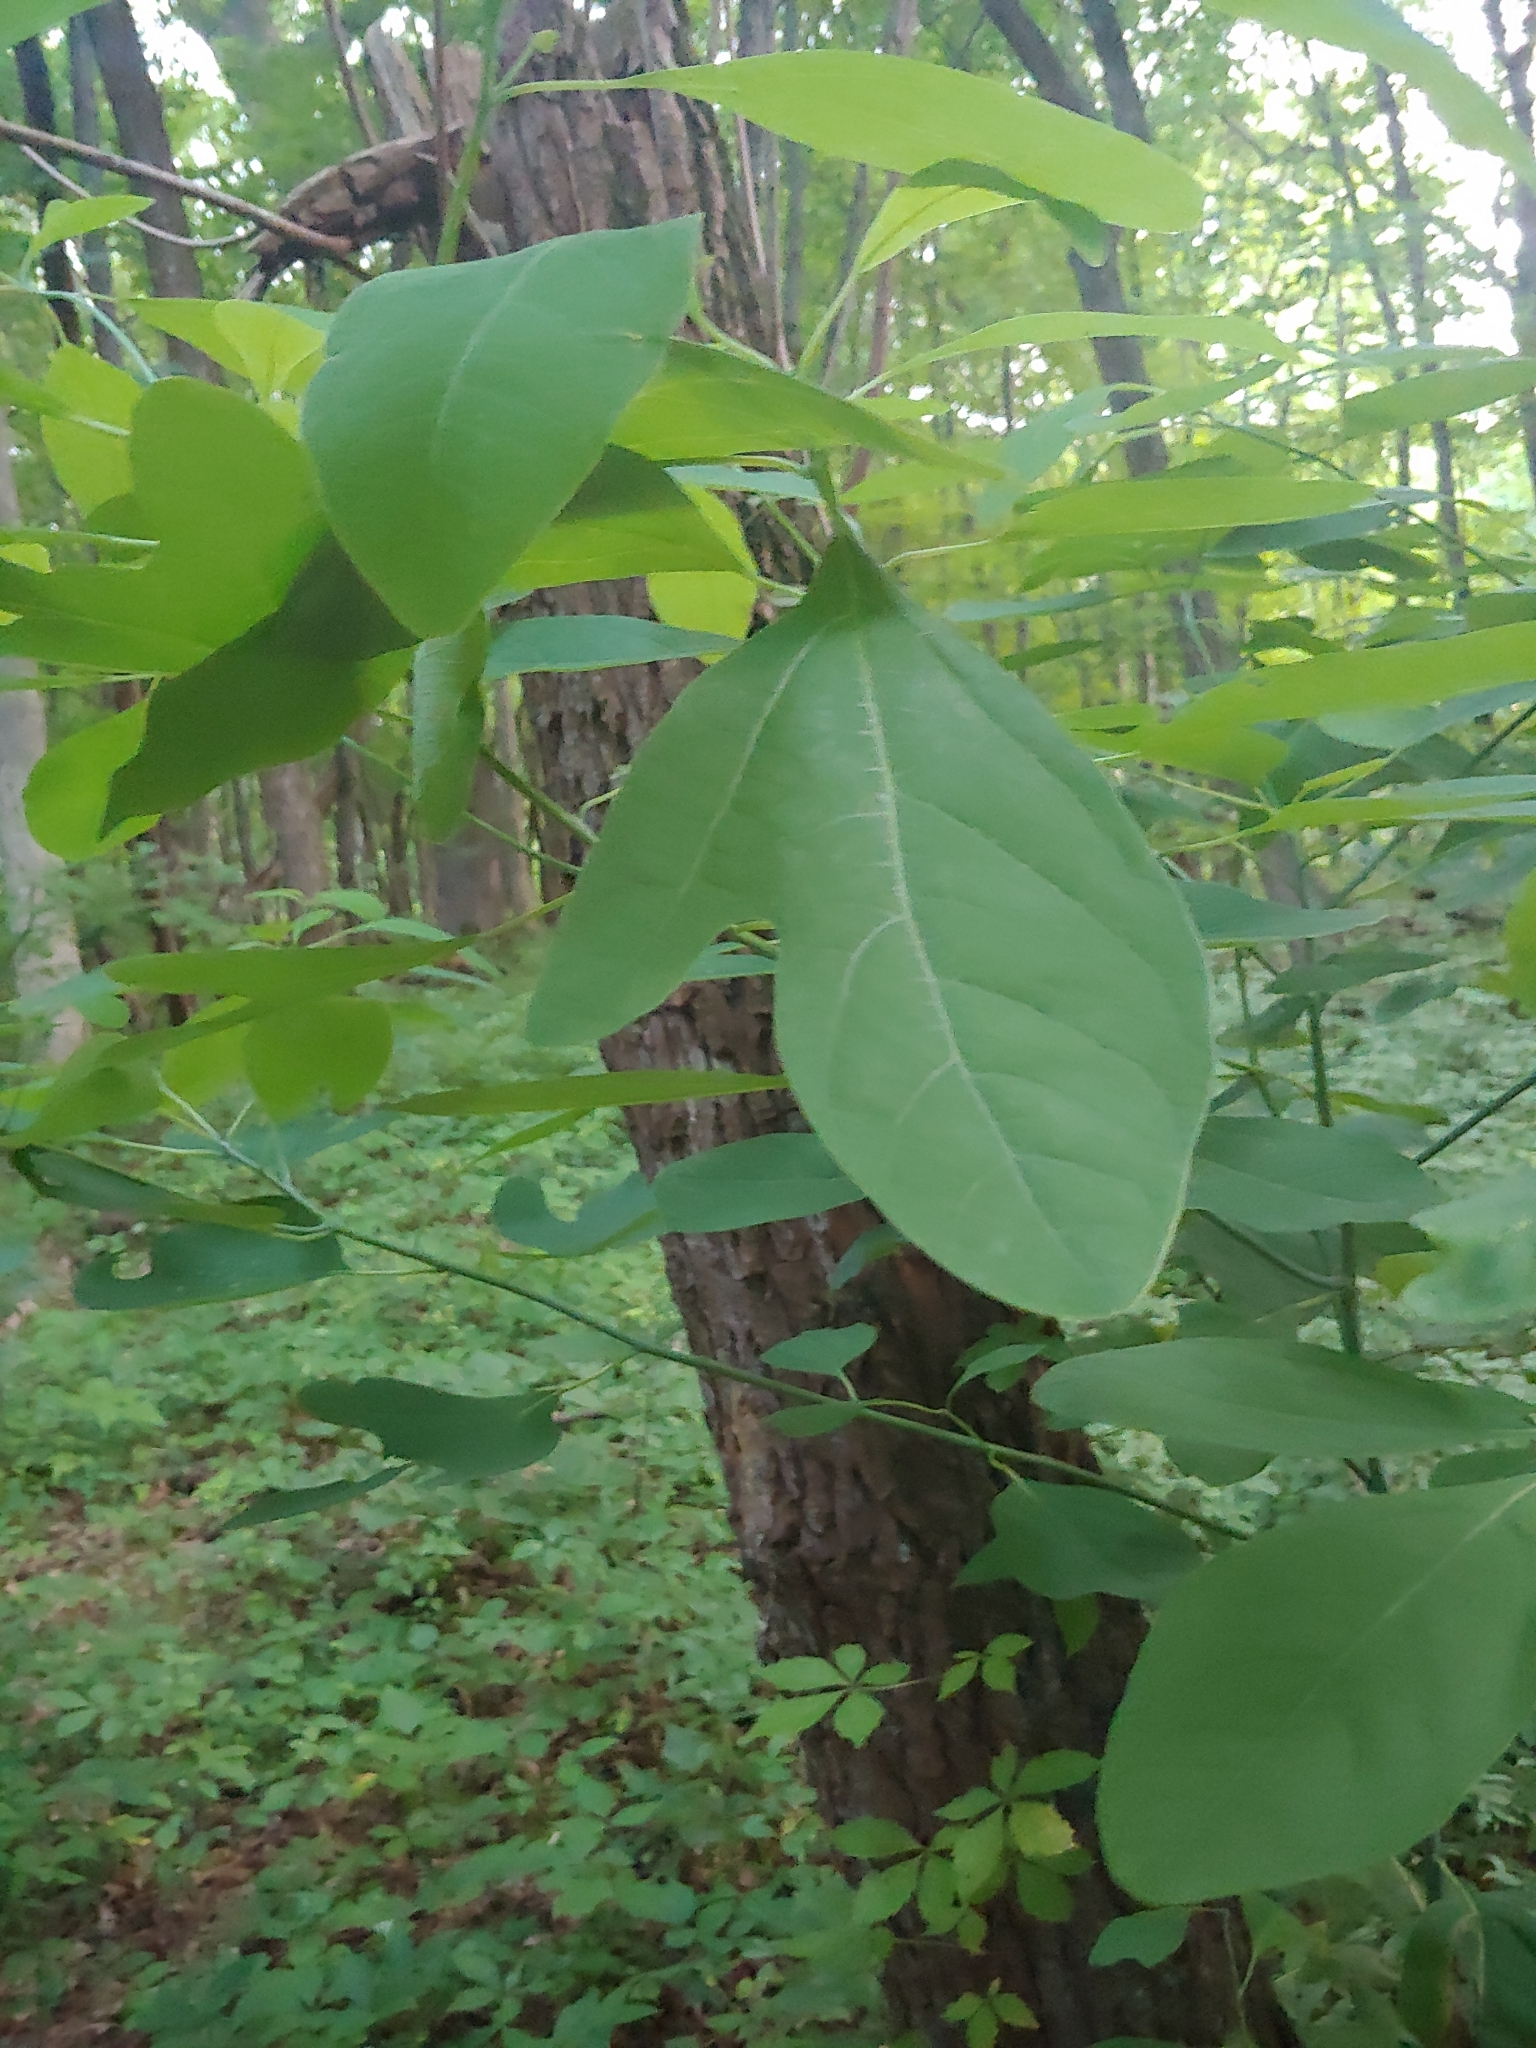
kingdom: Plantae
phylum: Tracheophyta
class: Magnoliopsida
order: Laurales
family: Lauraceae
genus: Sassafras
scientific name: Sassafras albidum
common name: Sassafras
